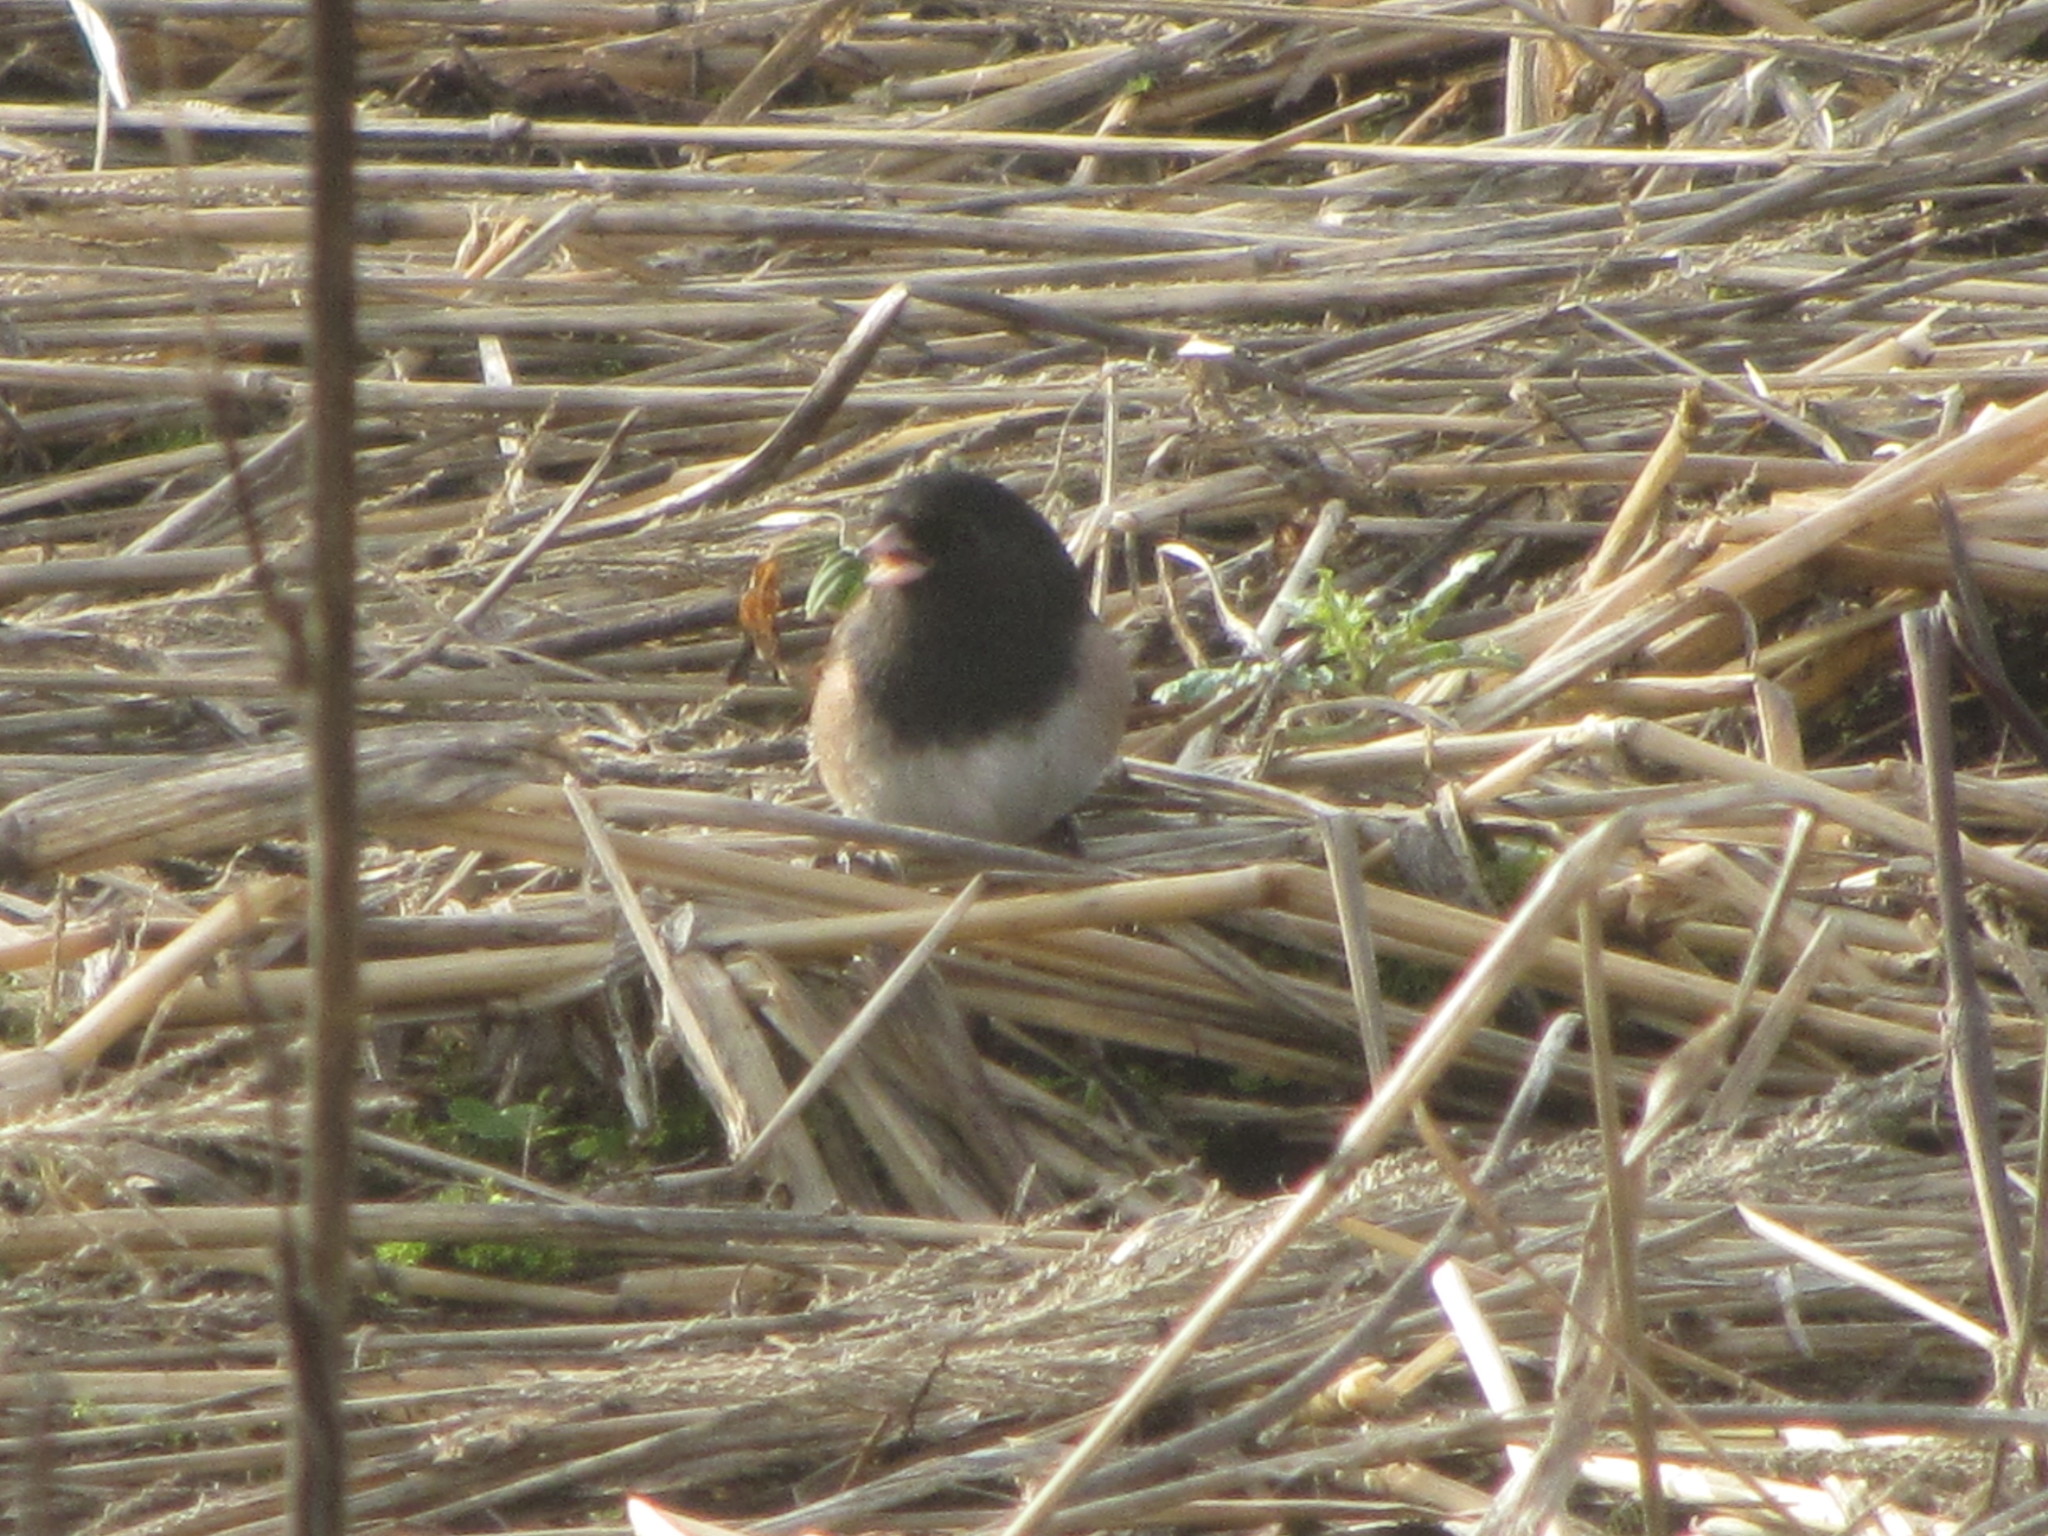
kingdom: Animalia
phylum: Chordata
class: Aves
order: Passeriformes
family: Passerellidae
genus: Junco
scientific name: Junco hyemalis
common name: Dark-eyed junco
